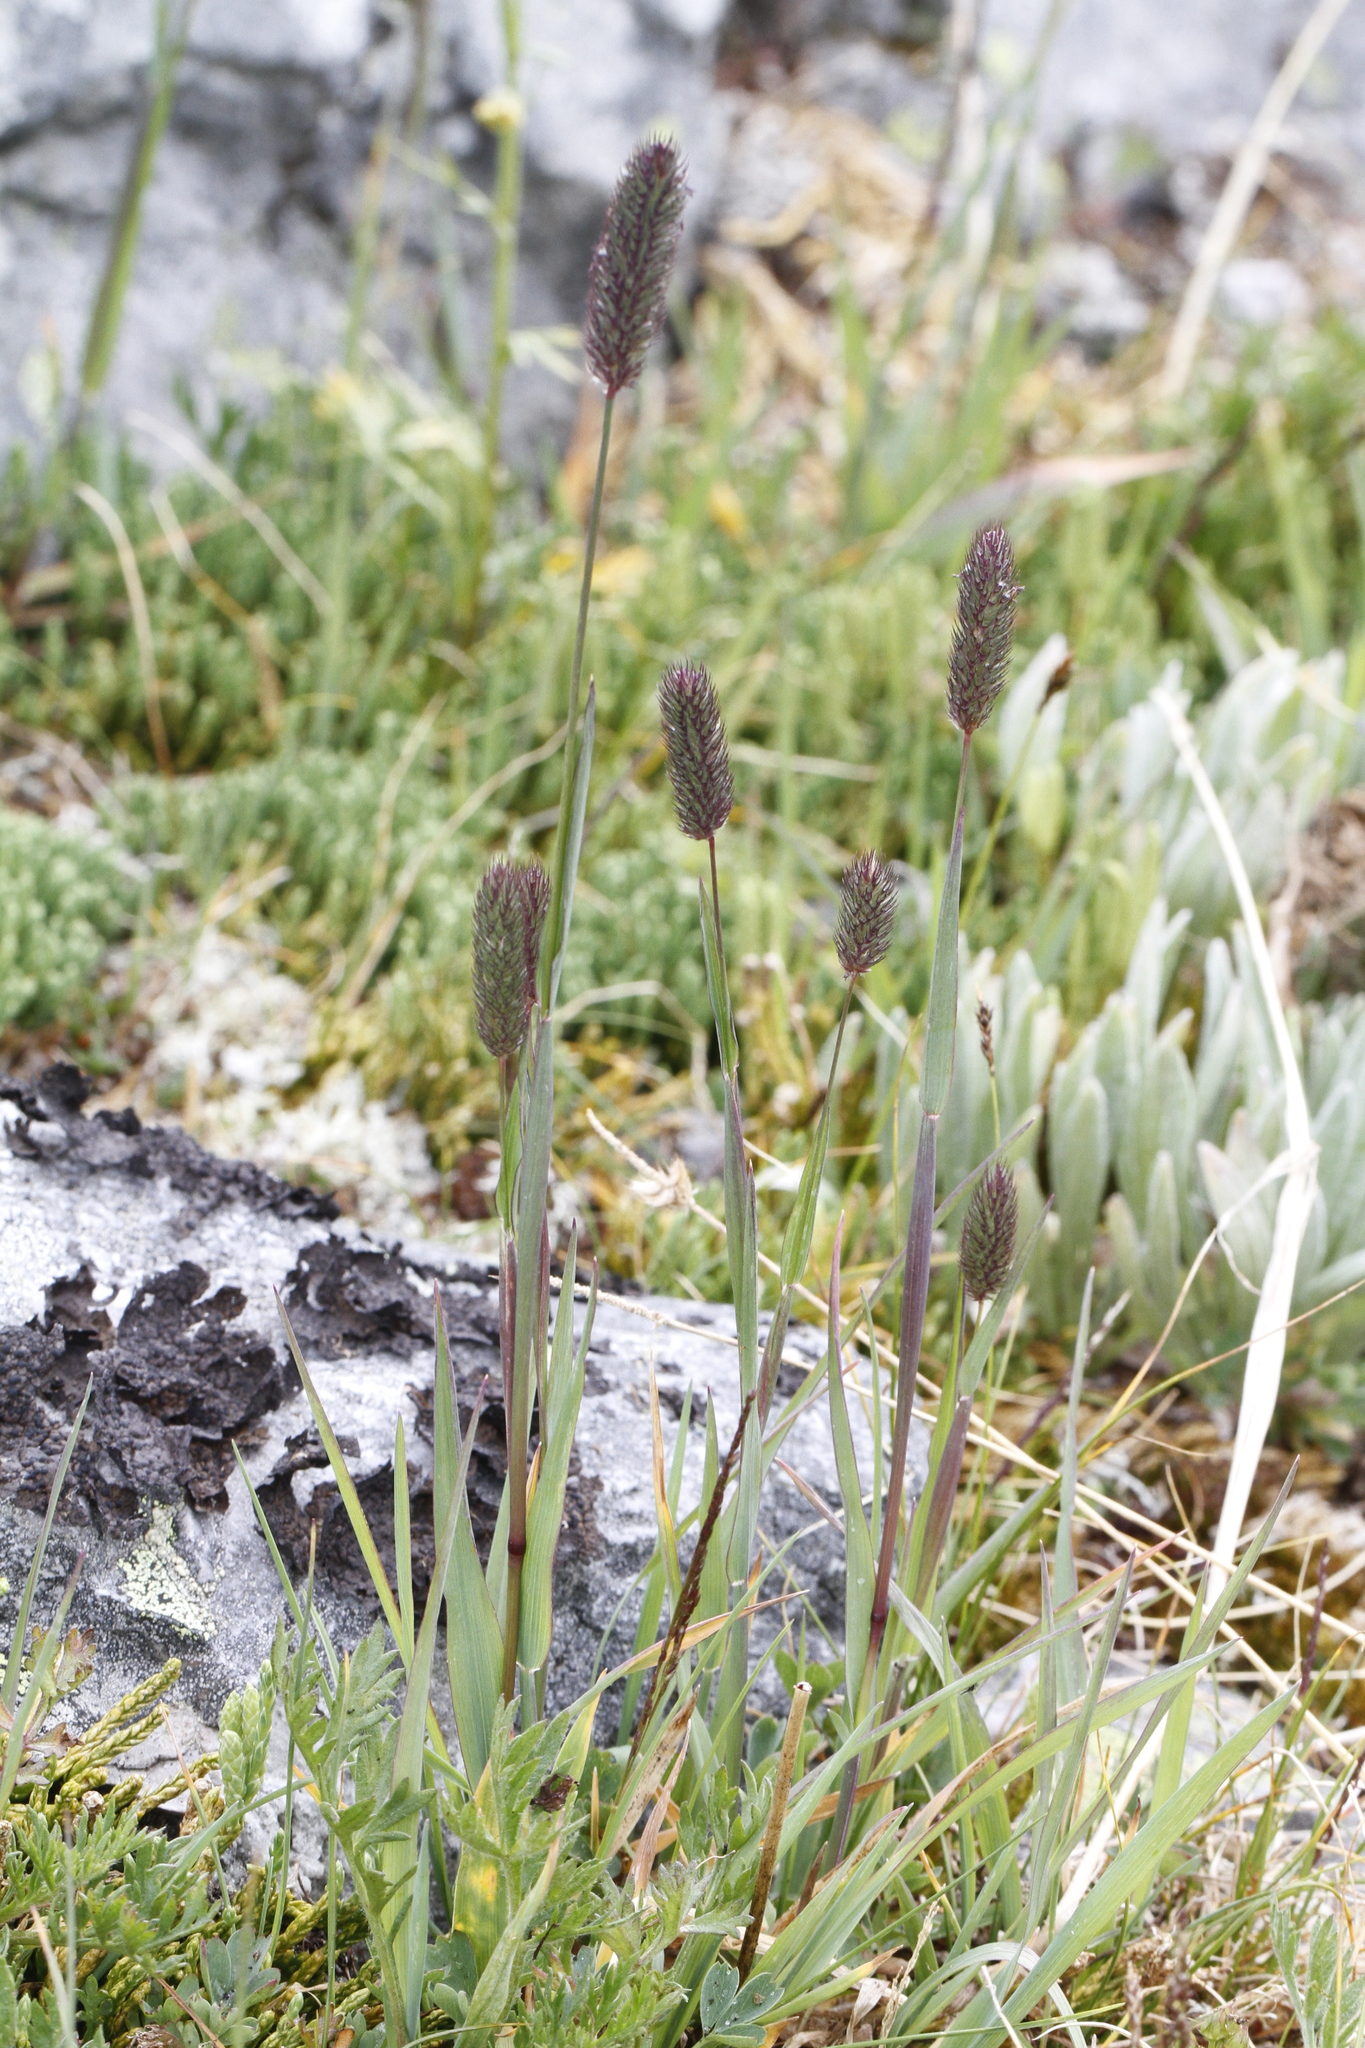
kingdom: Plantae
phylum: Tracheophyta
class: Liliopsida
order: Poales
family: Poaceae
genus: Phleum
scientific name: Phleum alpinum
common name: Alpine cat's-tail
